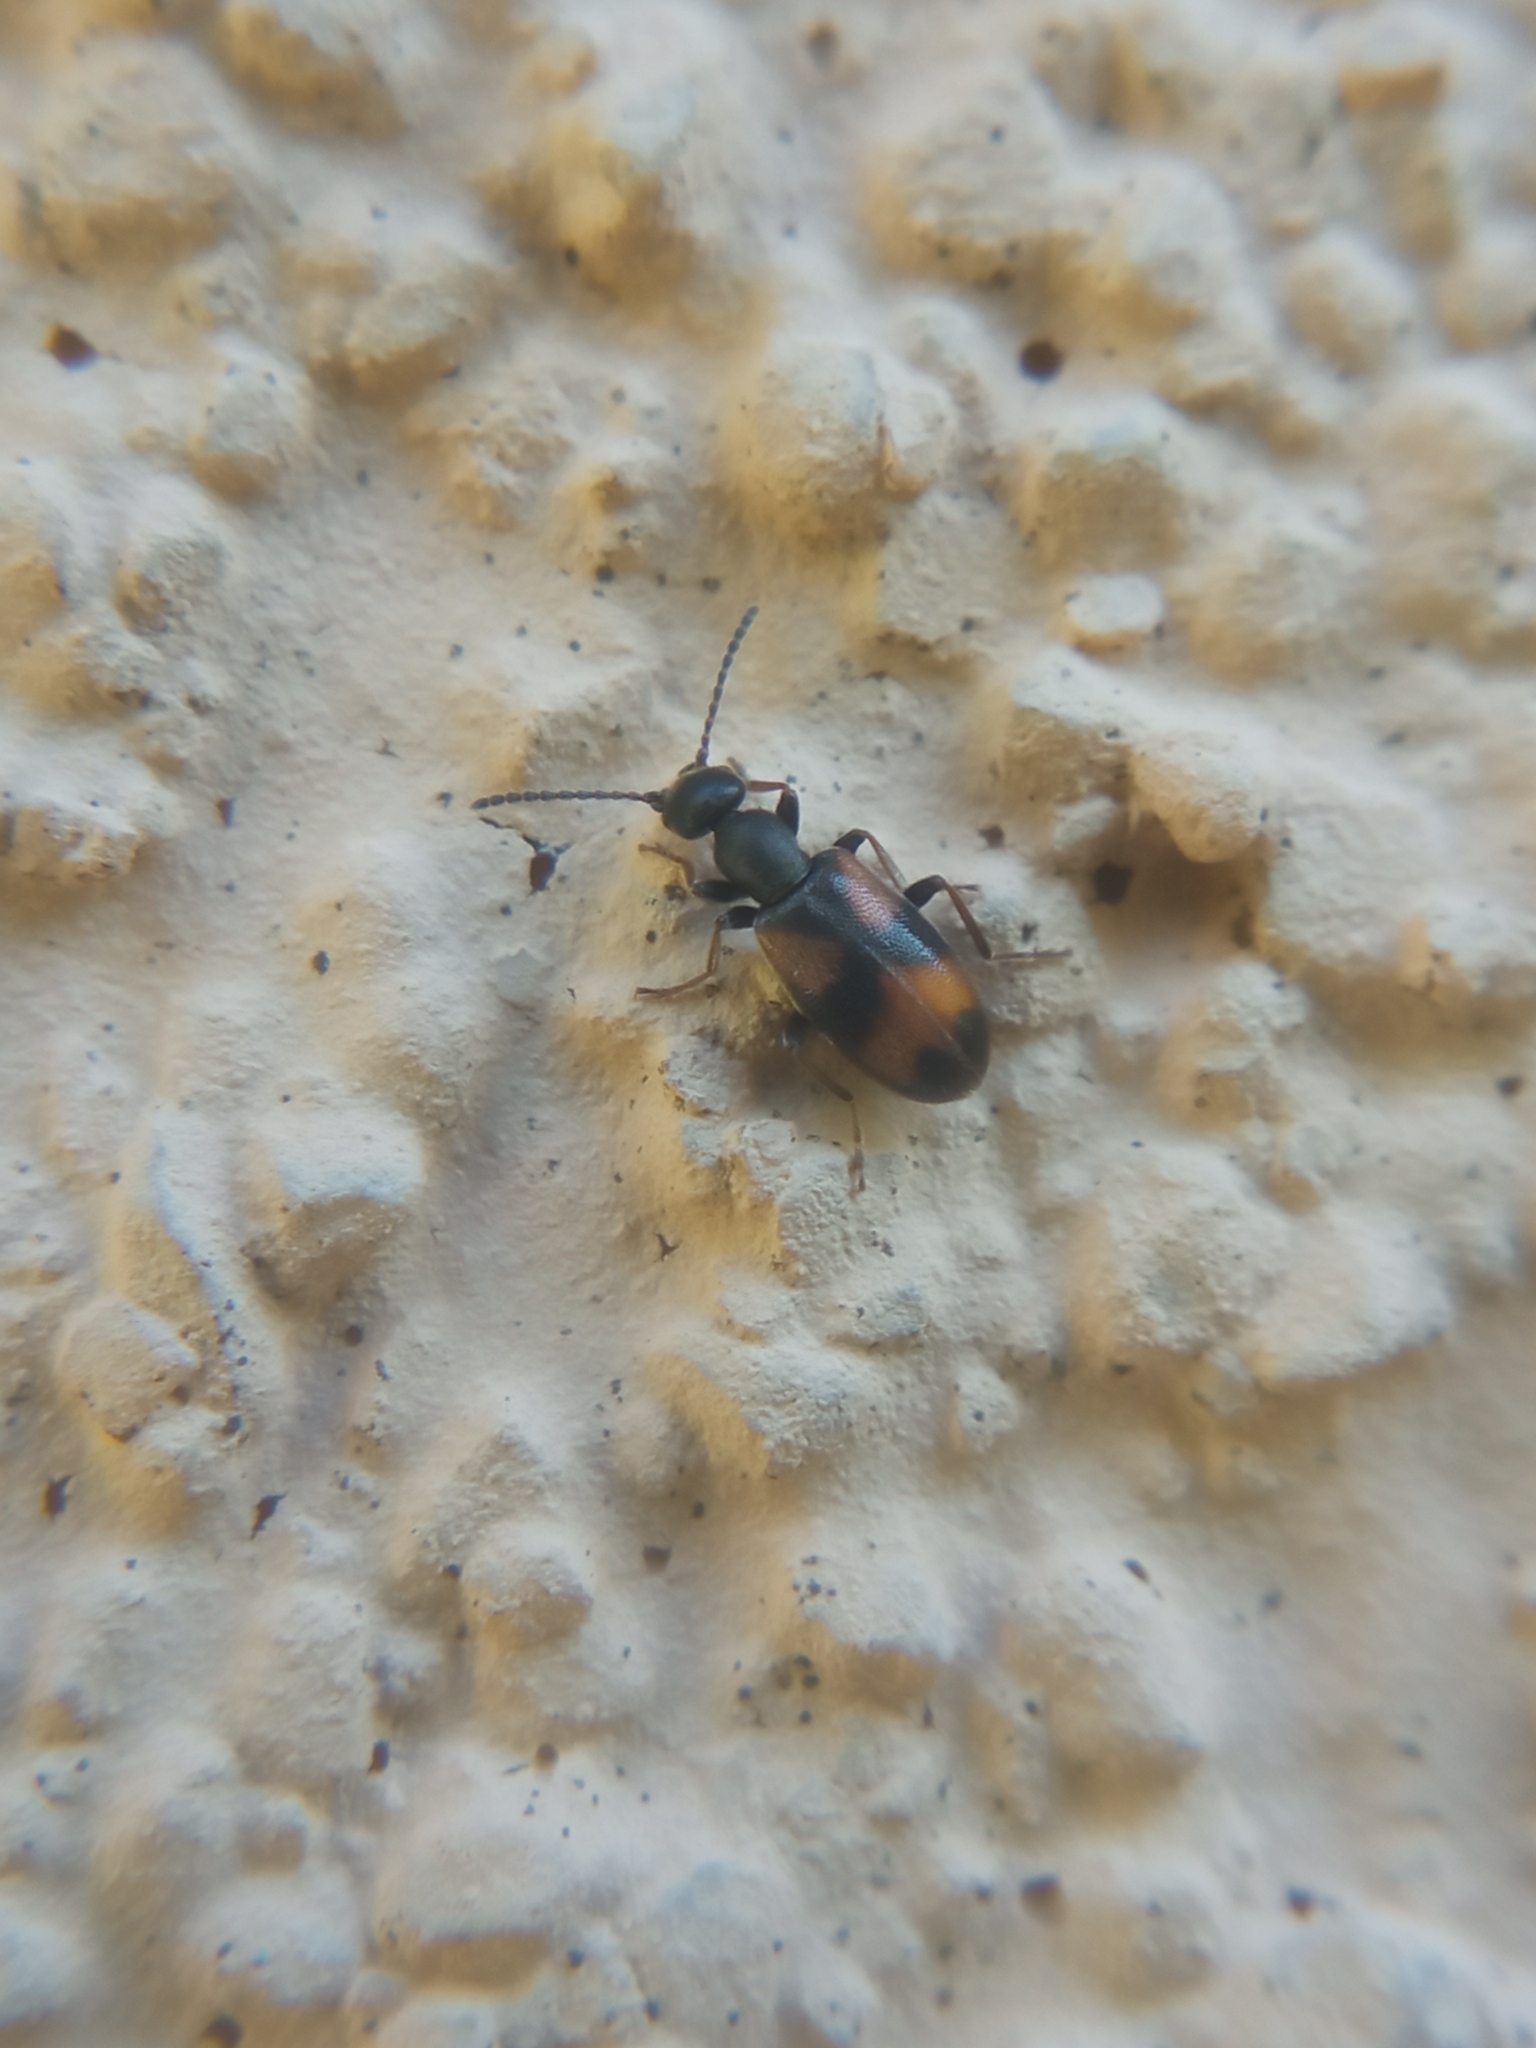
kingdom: Animalia
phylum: Arthropoda
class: Insecta
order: Coleoptera
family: Anthicidae
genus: Anthicus
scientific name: Anthicus antherinus
